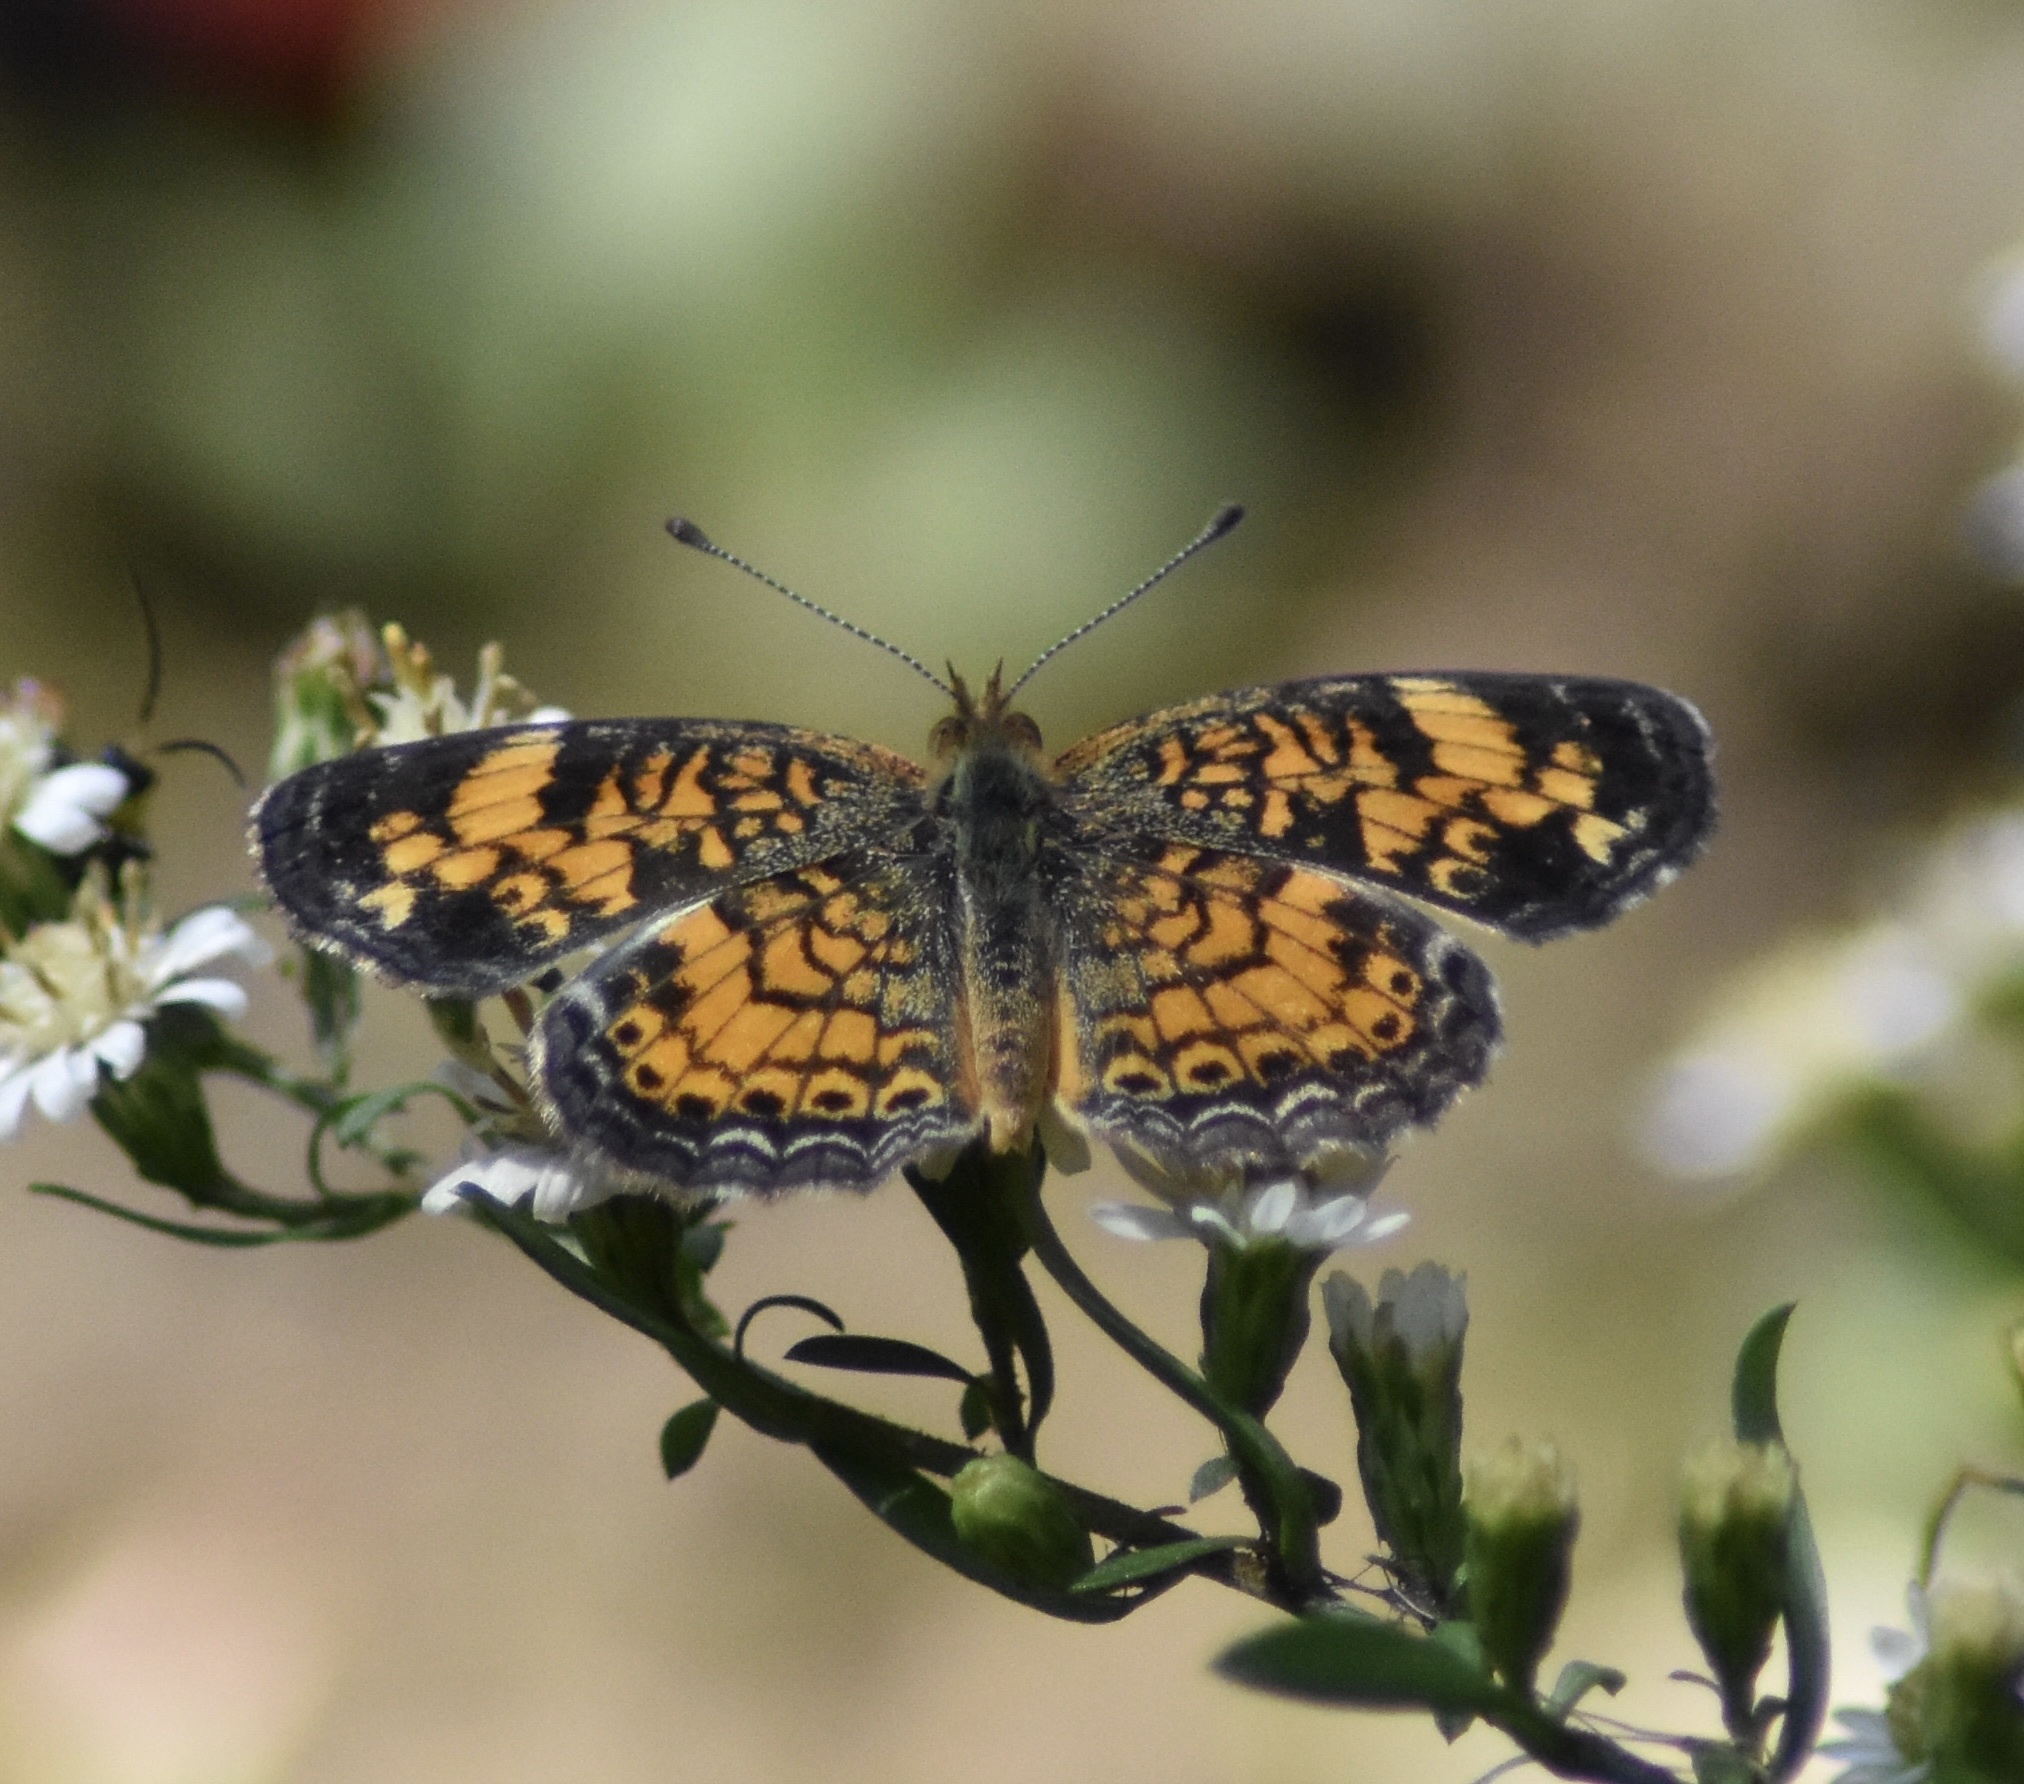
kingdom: Animalia
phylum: Arthropoda
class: Insecta
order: Lepidoptera
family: Nymphalidae
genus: Phyciodes
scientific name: Phyciodes tharos
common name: Pearl crescent
